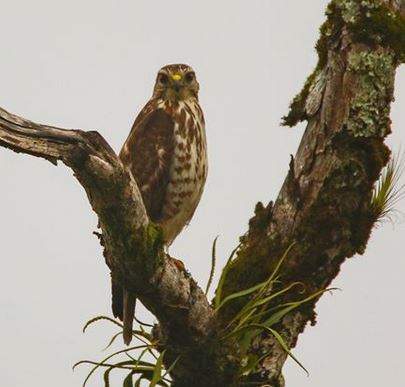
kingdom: Animalia
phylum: Chordata
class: Aves
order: Accipitriformes
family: Accipitridae
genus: Buteo
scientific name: Buteo platypterus
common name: Broad-winged hawk
